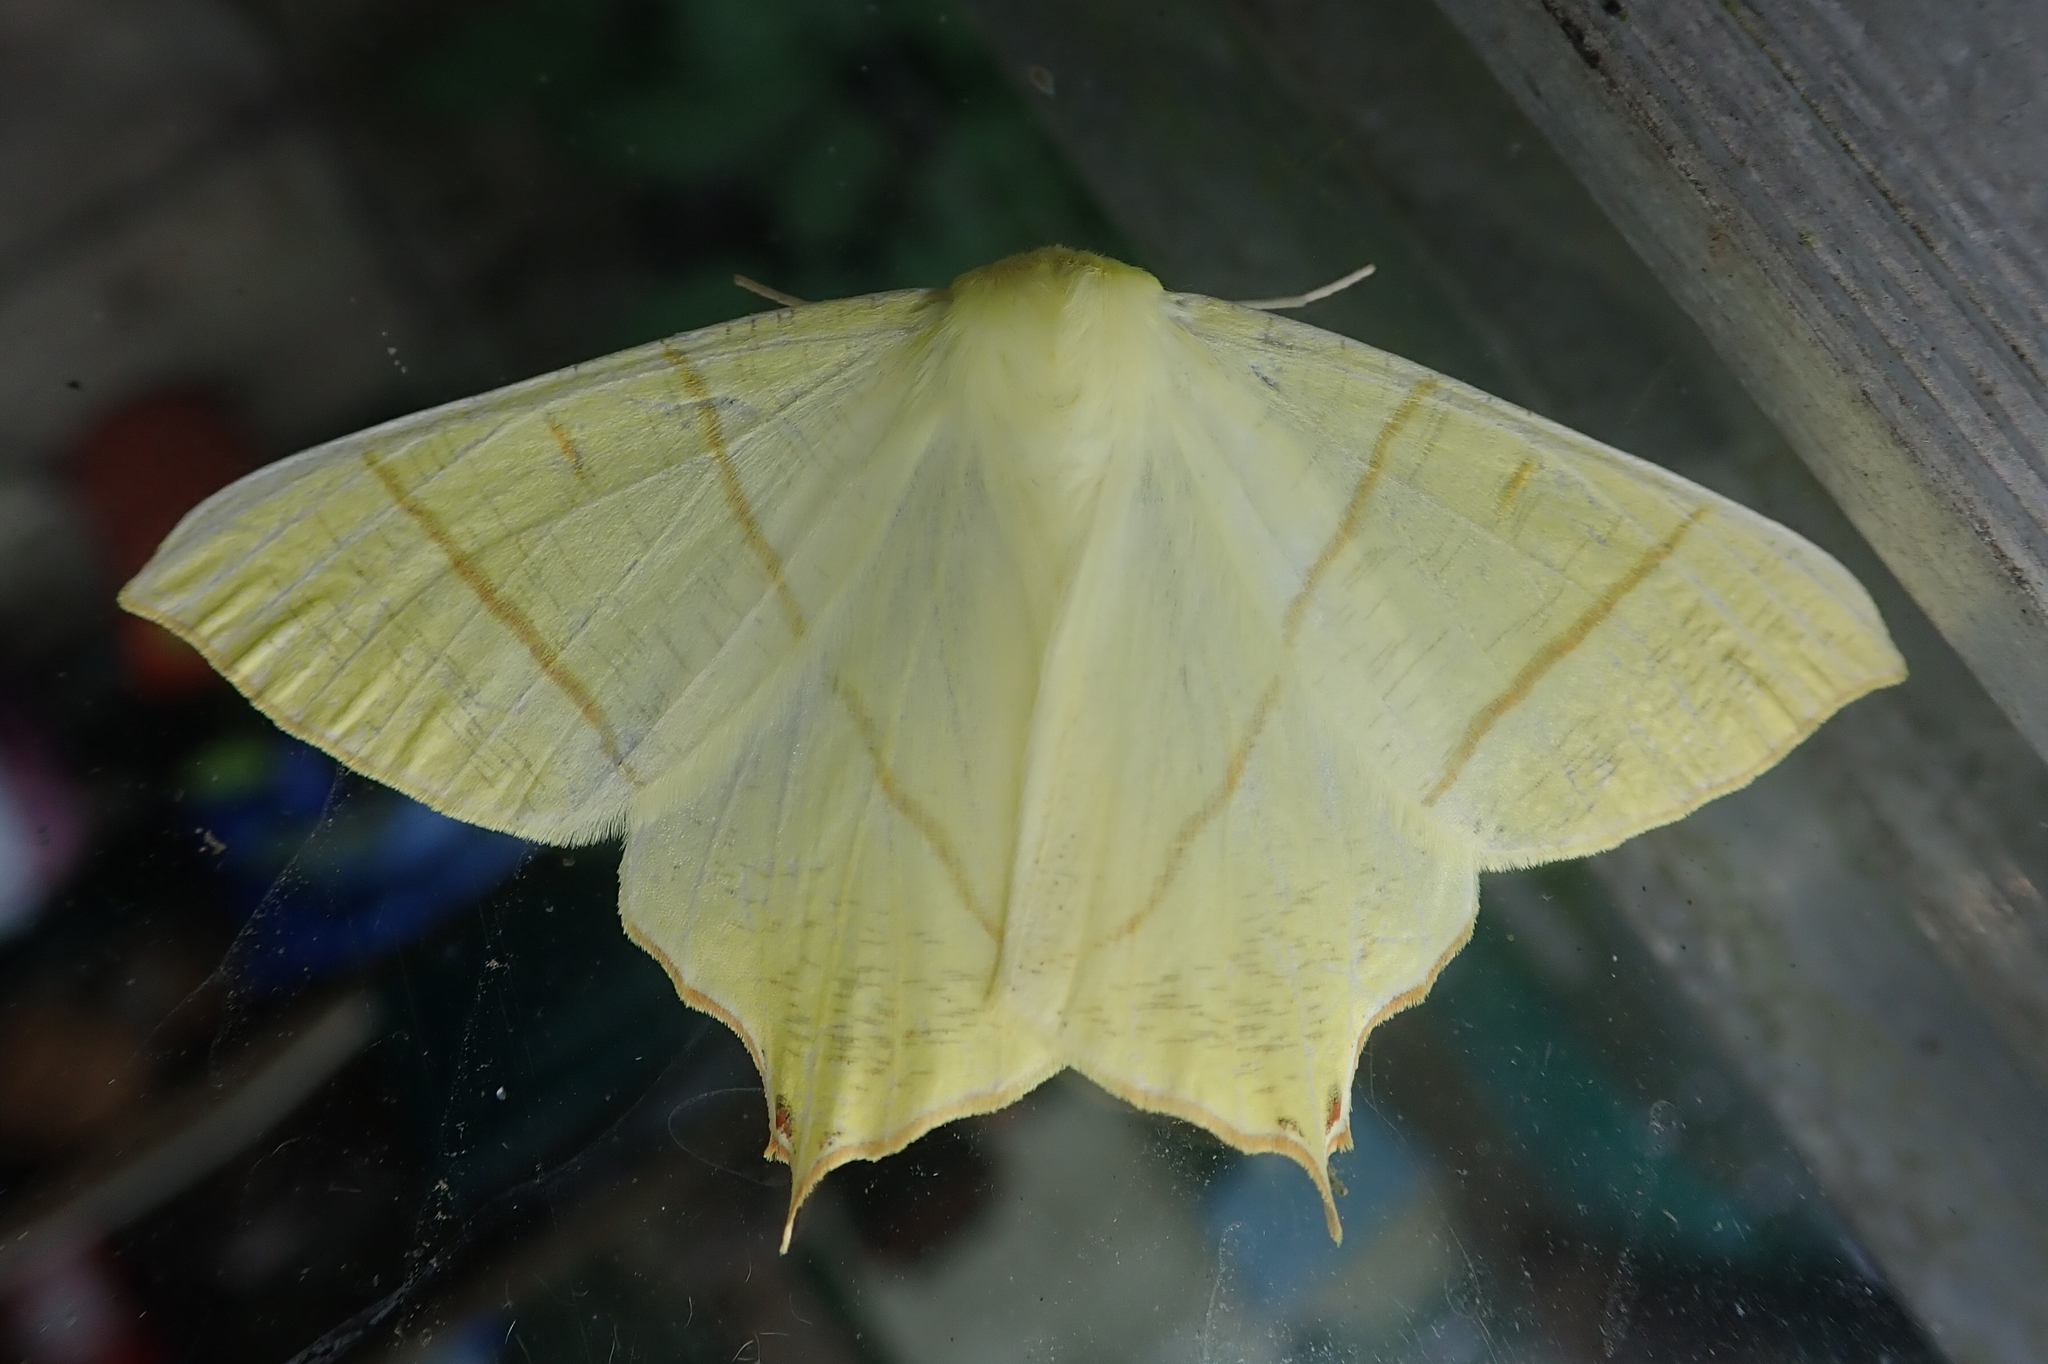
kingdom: Animalia
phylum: Arthropoda
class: Insecta
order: Lepidoptera
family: Geometridae
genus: Ourapteryx
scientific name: Ourapteryx sambucaria
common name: Swallow-tailed moth
